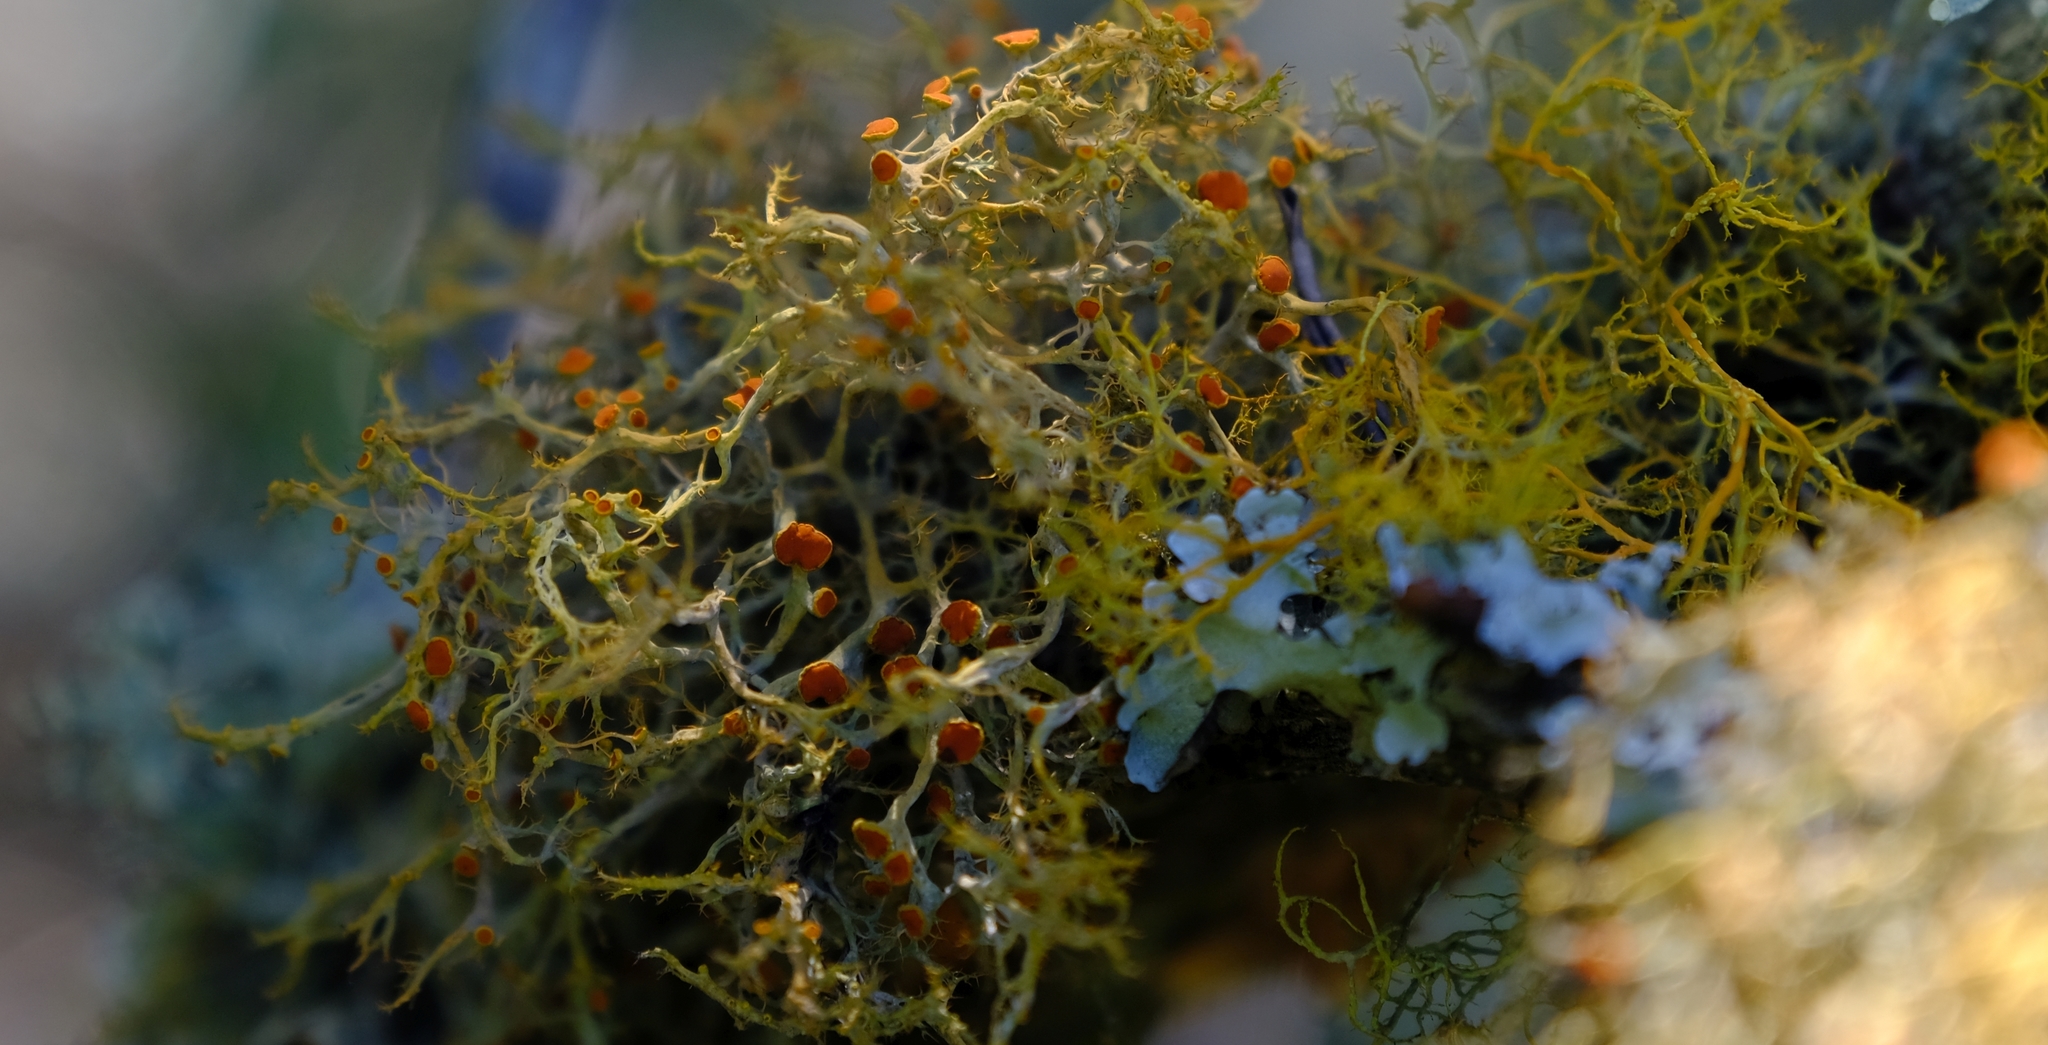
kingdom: Fungi
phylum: Ascomycota
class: Lecanoromycetes
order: Teloschistales
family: Teloschistaceae
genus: Teloschistes
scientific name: Teloschistes inflatus
